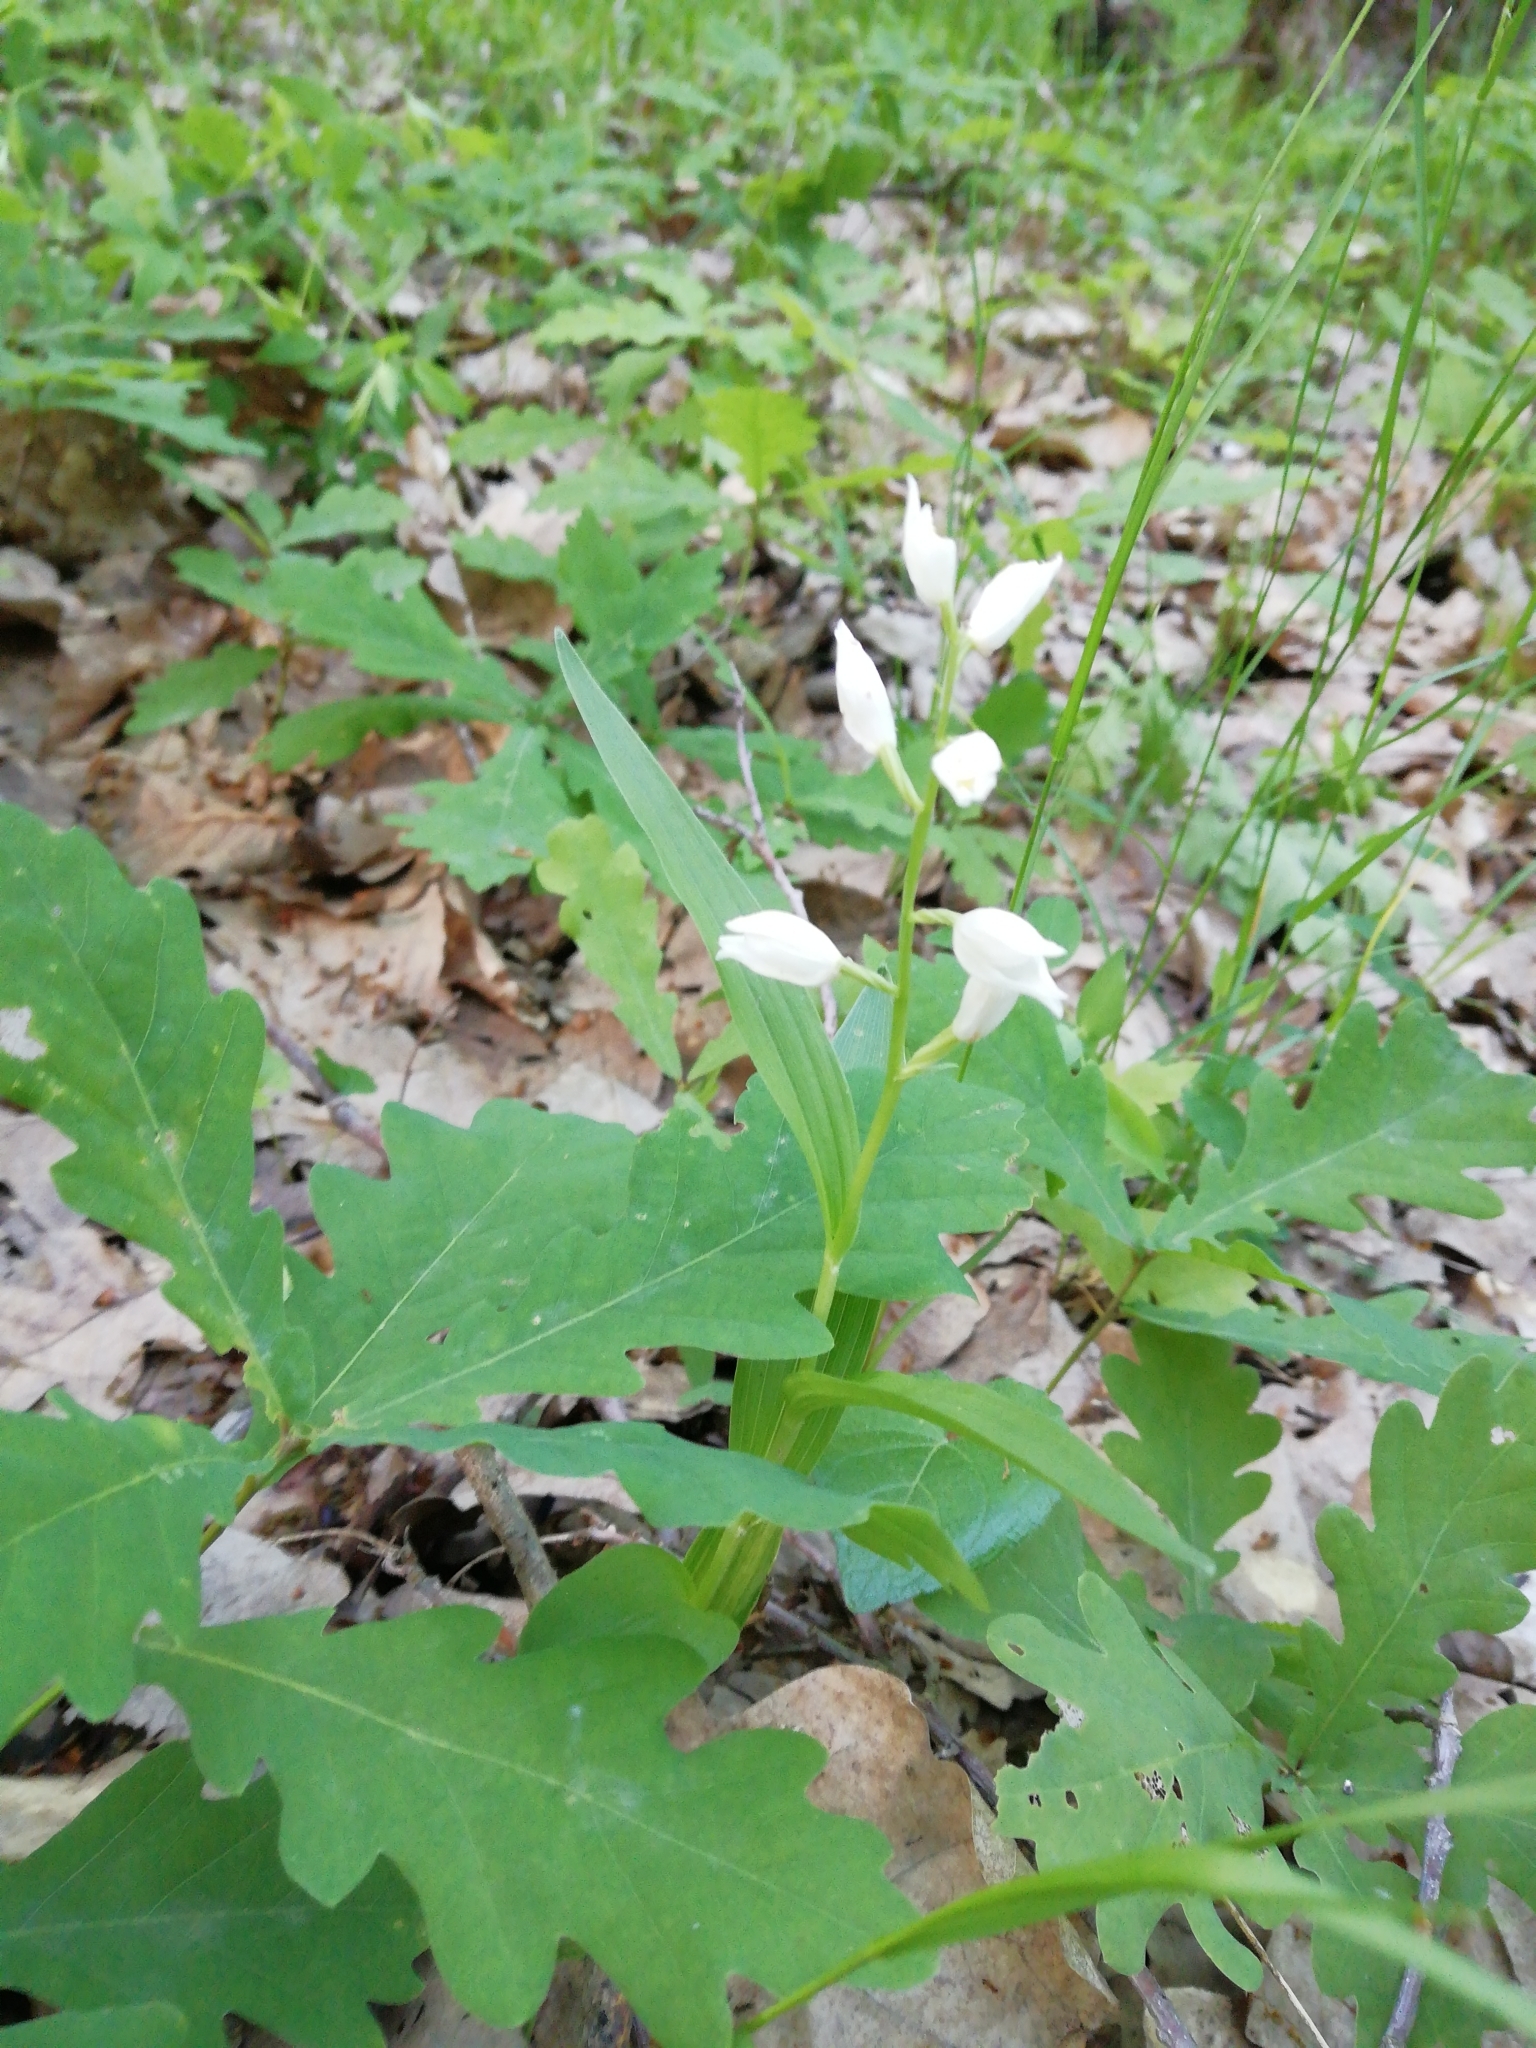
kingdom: Plantae
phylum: Tracheophyta
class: Liliopsida
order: Asparagales
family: Orchidaceae
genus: Cephalanthera
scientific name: Cephalanthera longifolia
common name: Narrow-leaved helleborine
